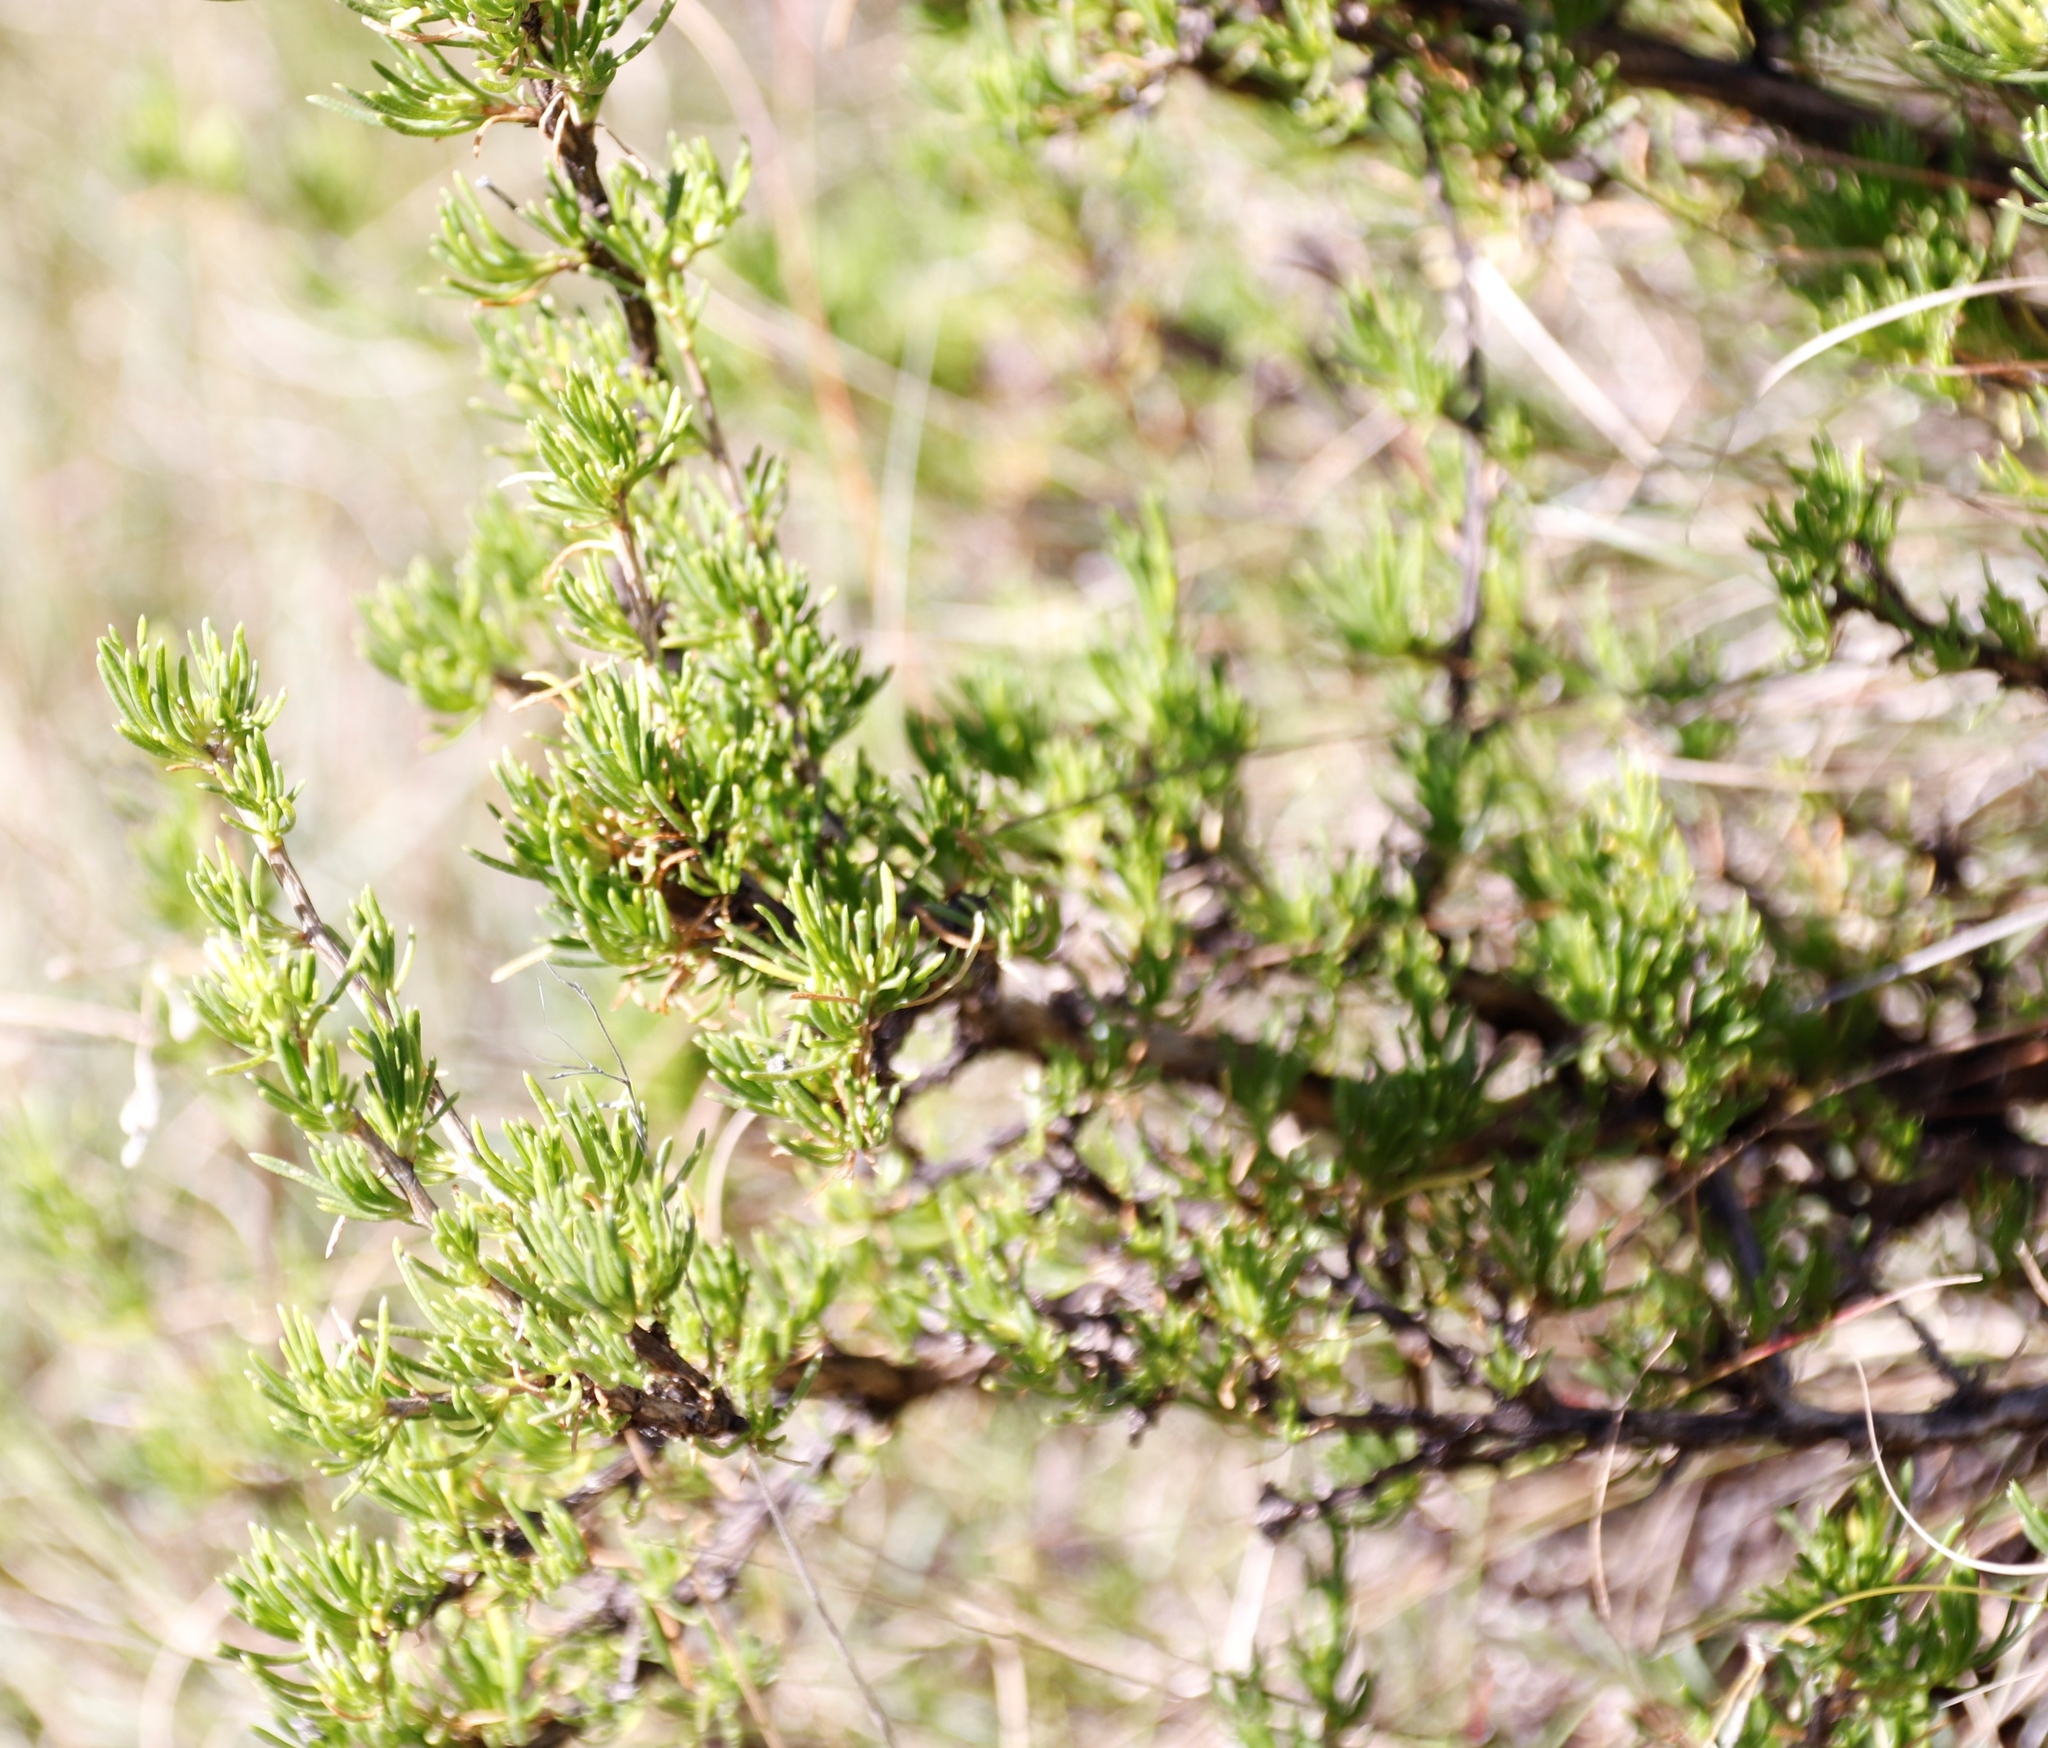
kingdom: Plantae
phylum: Tracheophyta
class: Magnoliopsida
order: Asterales
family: Asteraceae
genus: Felicia
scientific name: Felicia filifolia
